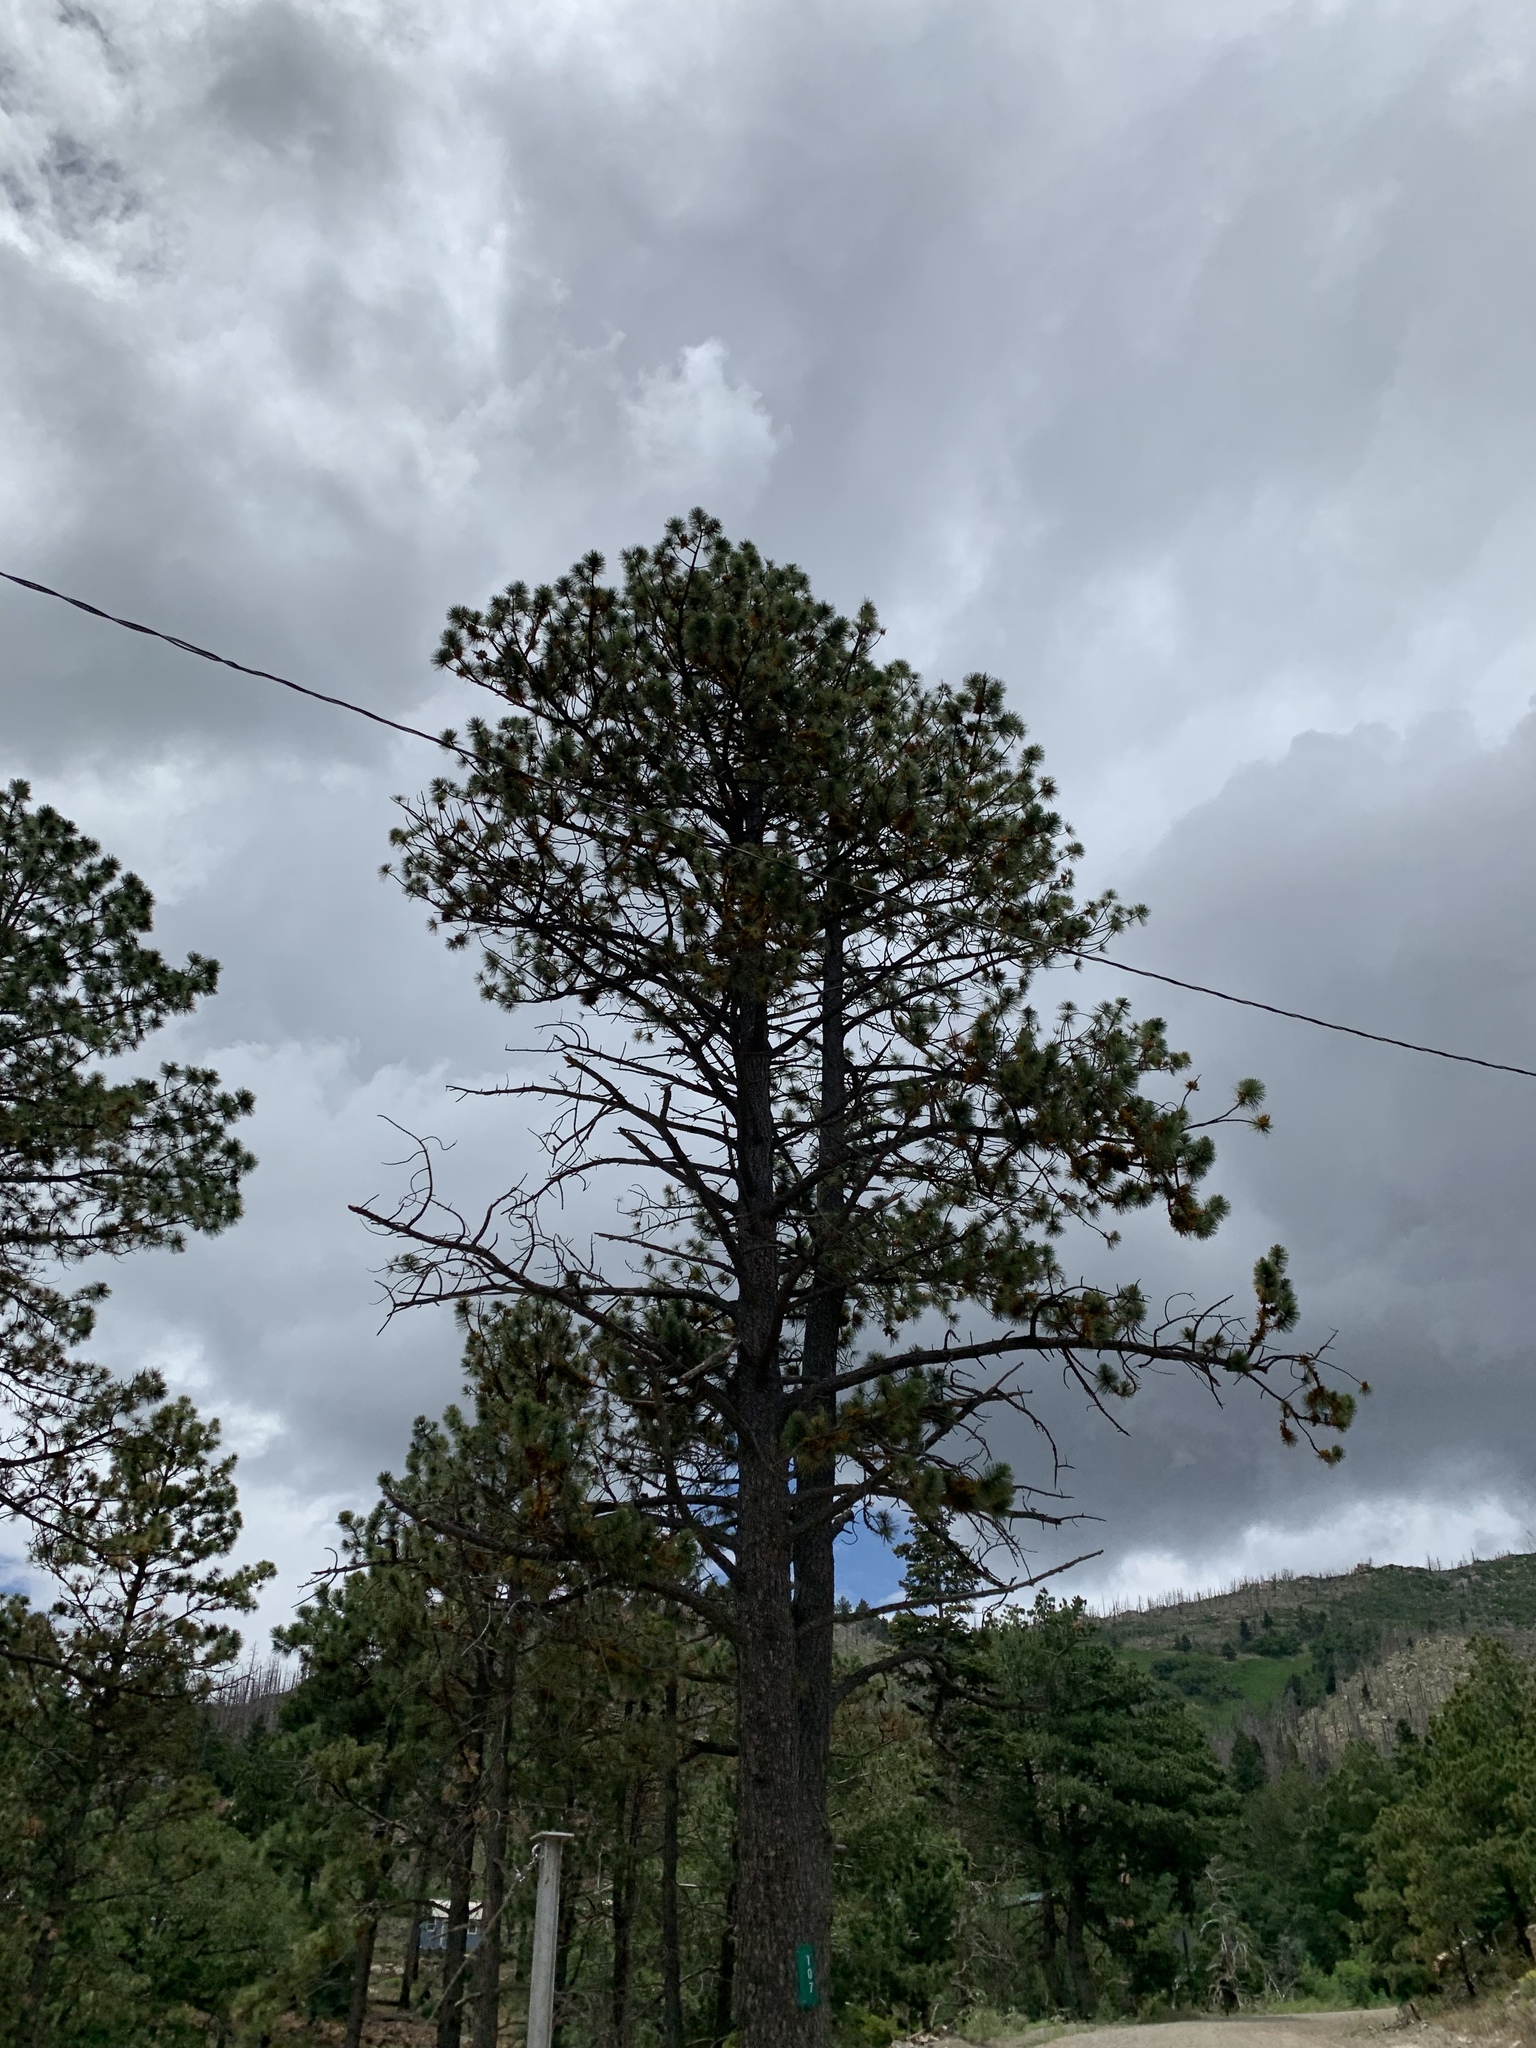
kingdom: Plantae
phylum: Tracheophyta
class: Pinopsida
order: Pinales
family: Pinaceae
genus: Pinus
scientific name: Pinus ponderosa
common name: Western yellow-pine
